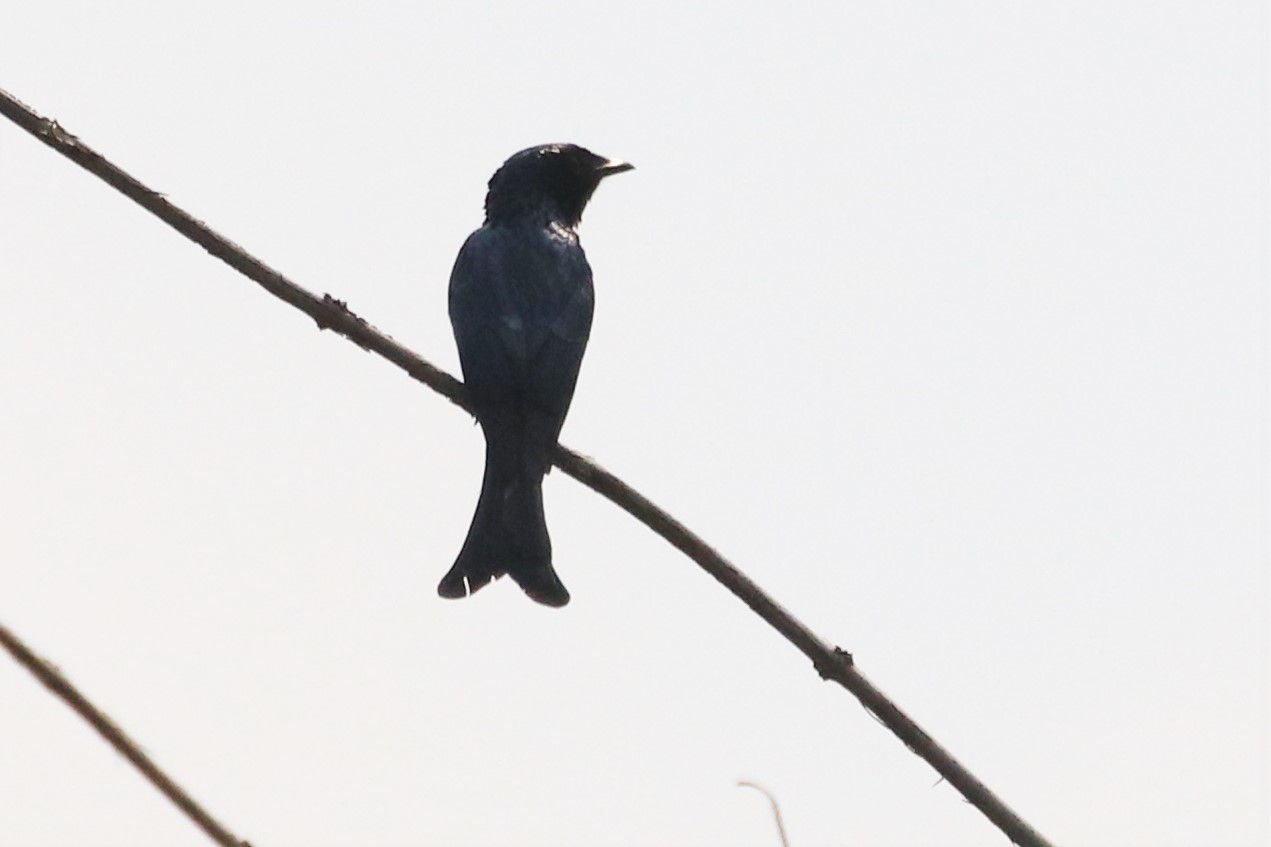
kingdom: Animalia
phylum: Chordata
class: Aves
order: Passeriformes
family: Dicruridae
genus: Dicrurus
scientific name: Dicrurus aeneus
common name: Bronzed drongo
